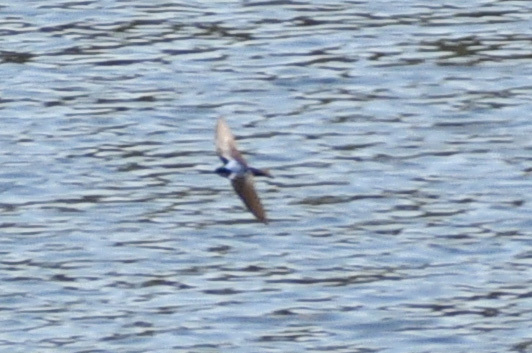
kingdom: Animalia
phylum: Chordata
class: Aves
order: Passeriformes
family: Hirundinidae
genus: Tachycineta
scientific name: Tachycineta bicolor
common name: Tree swallow
